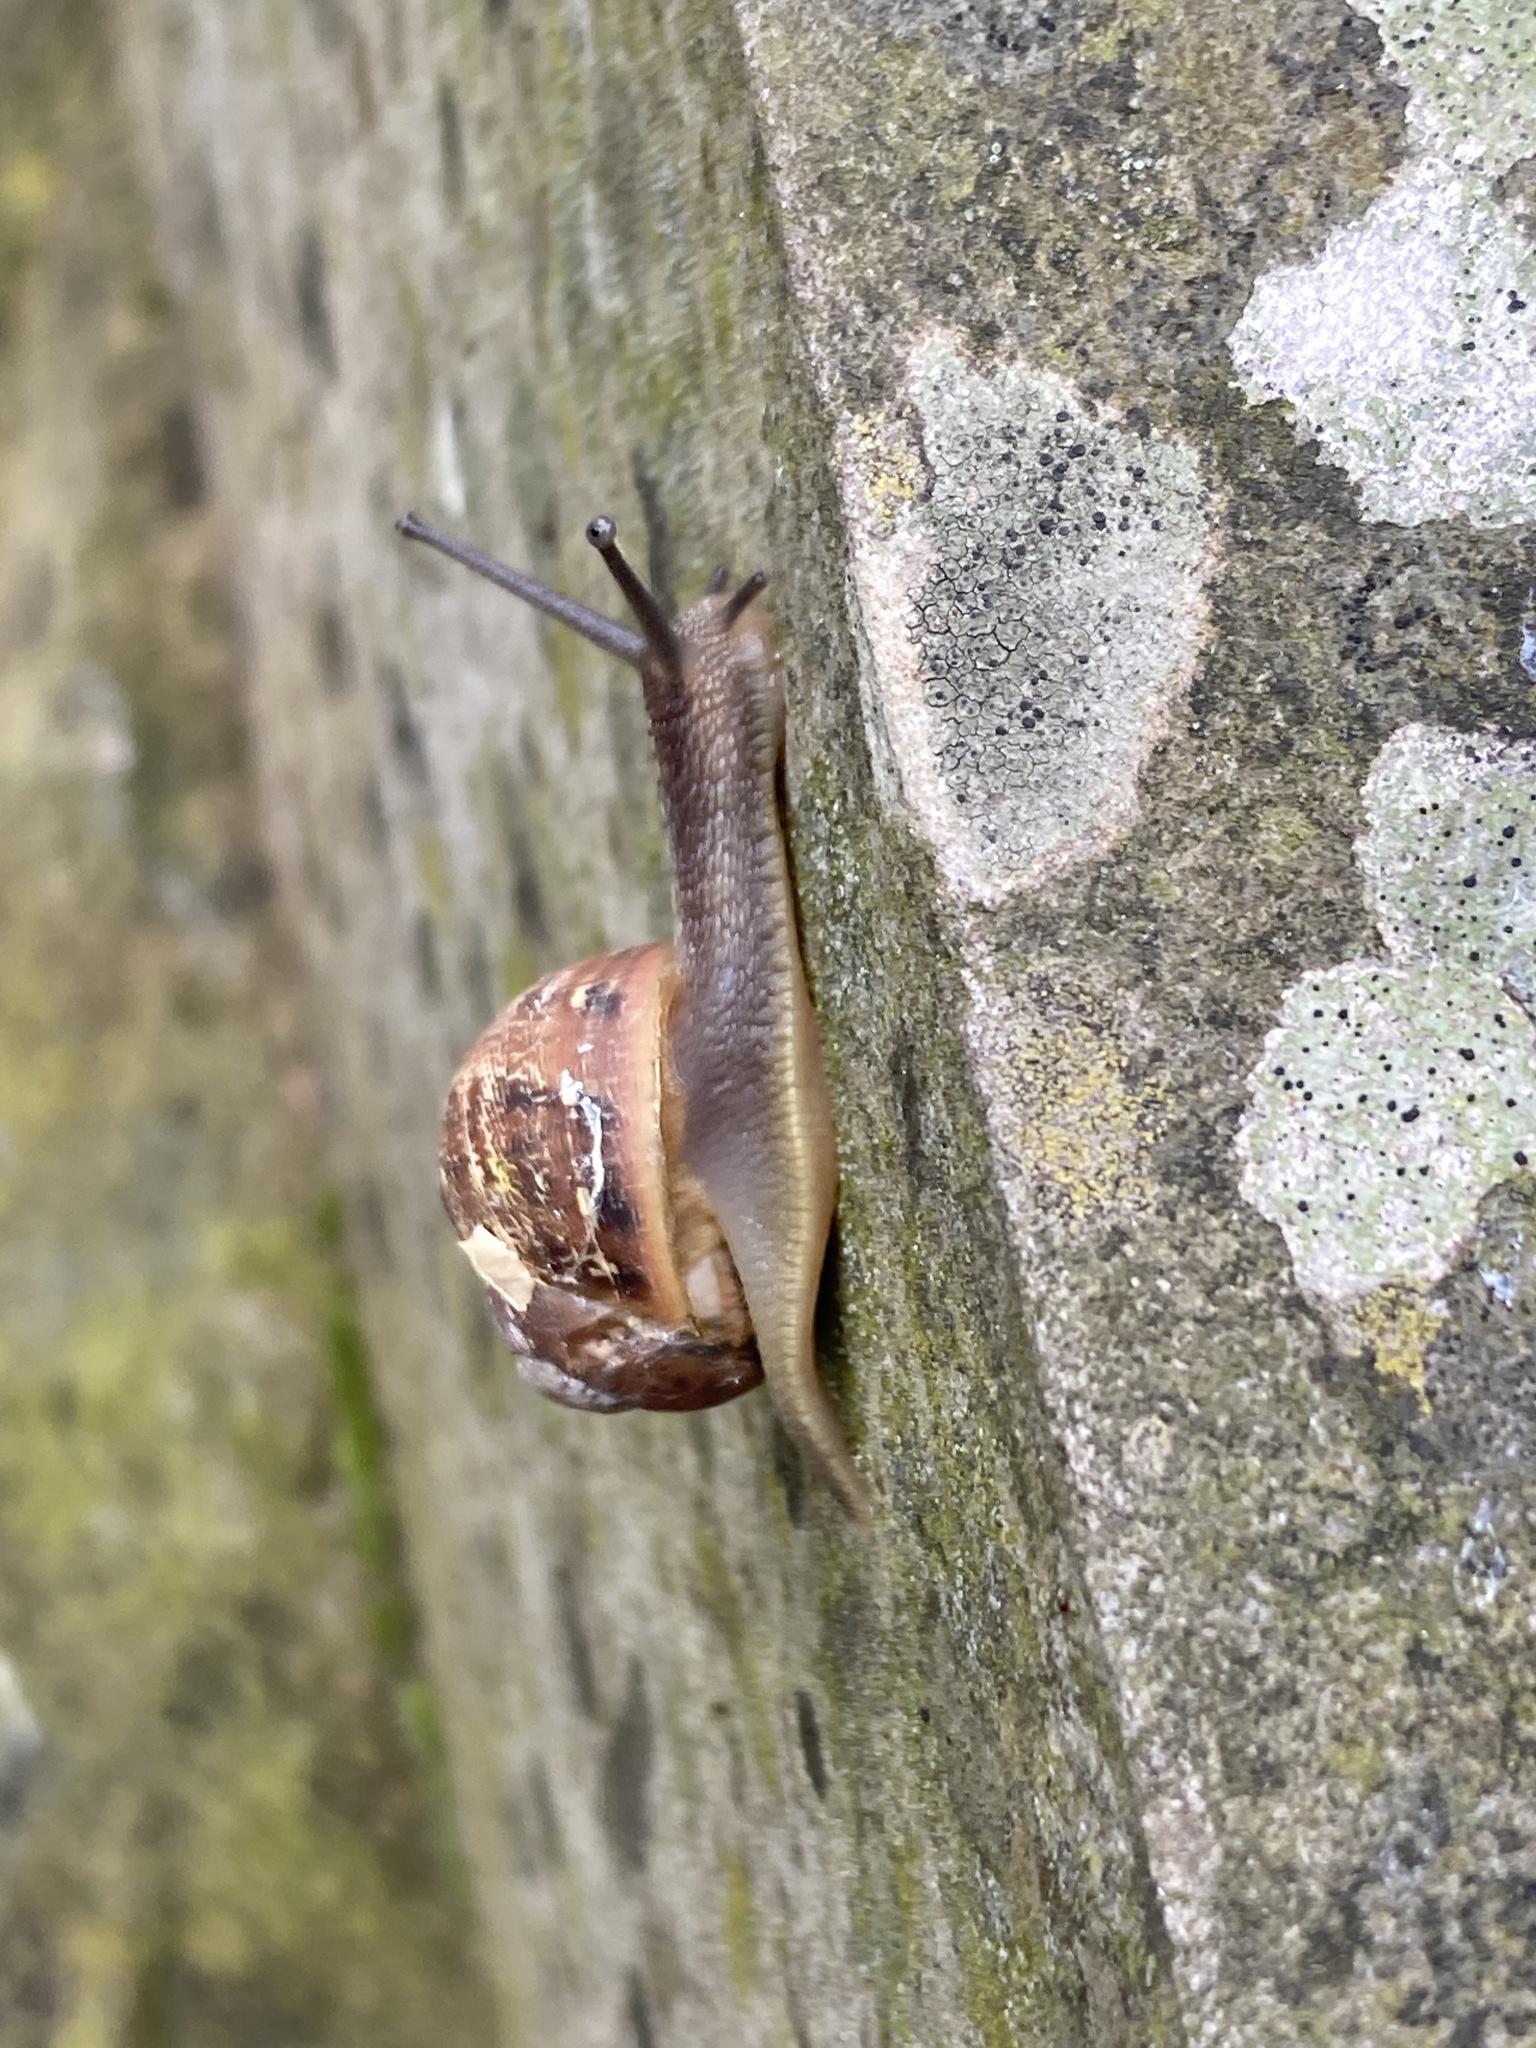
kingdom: Animalia
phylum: Mollusca
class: Gastropoda
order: Stylommatophora
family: Helicidae
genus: Cornu
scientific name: Cornu aspersum
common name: Brown garden snail
